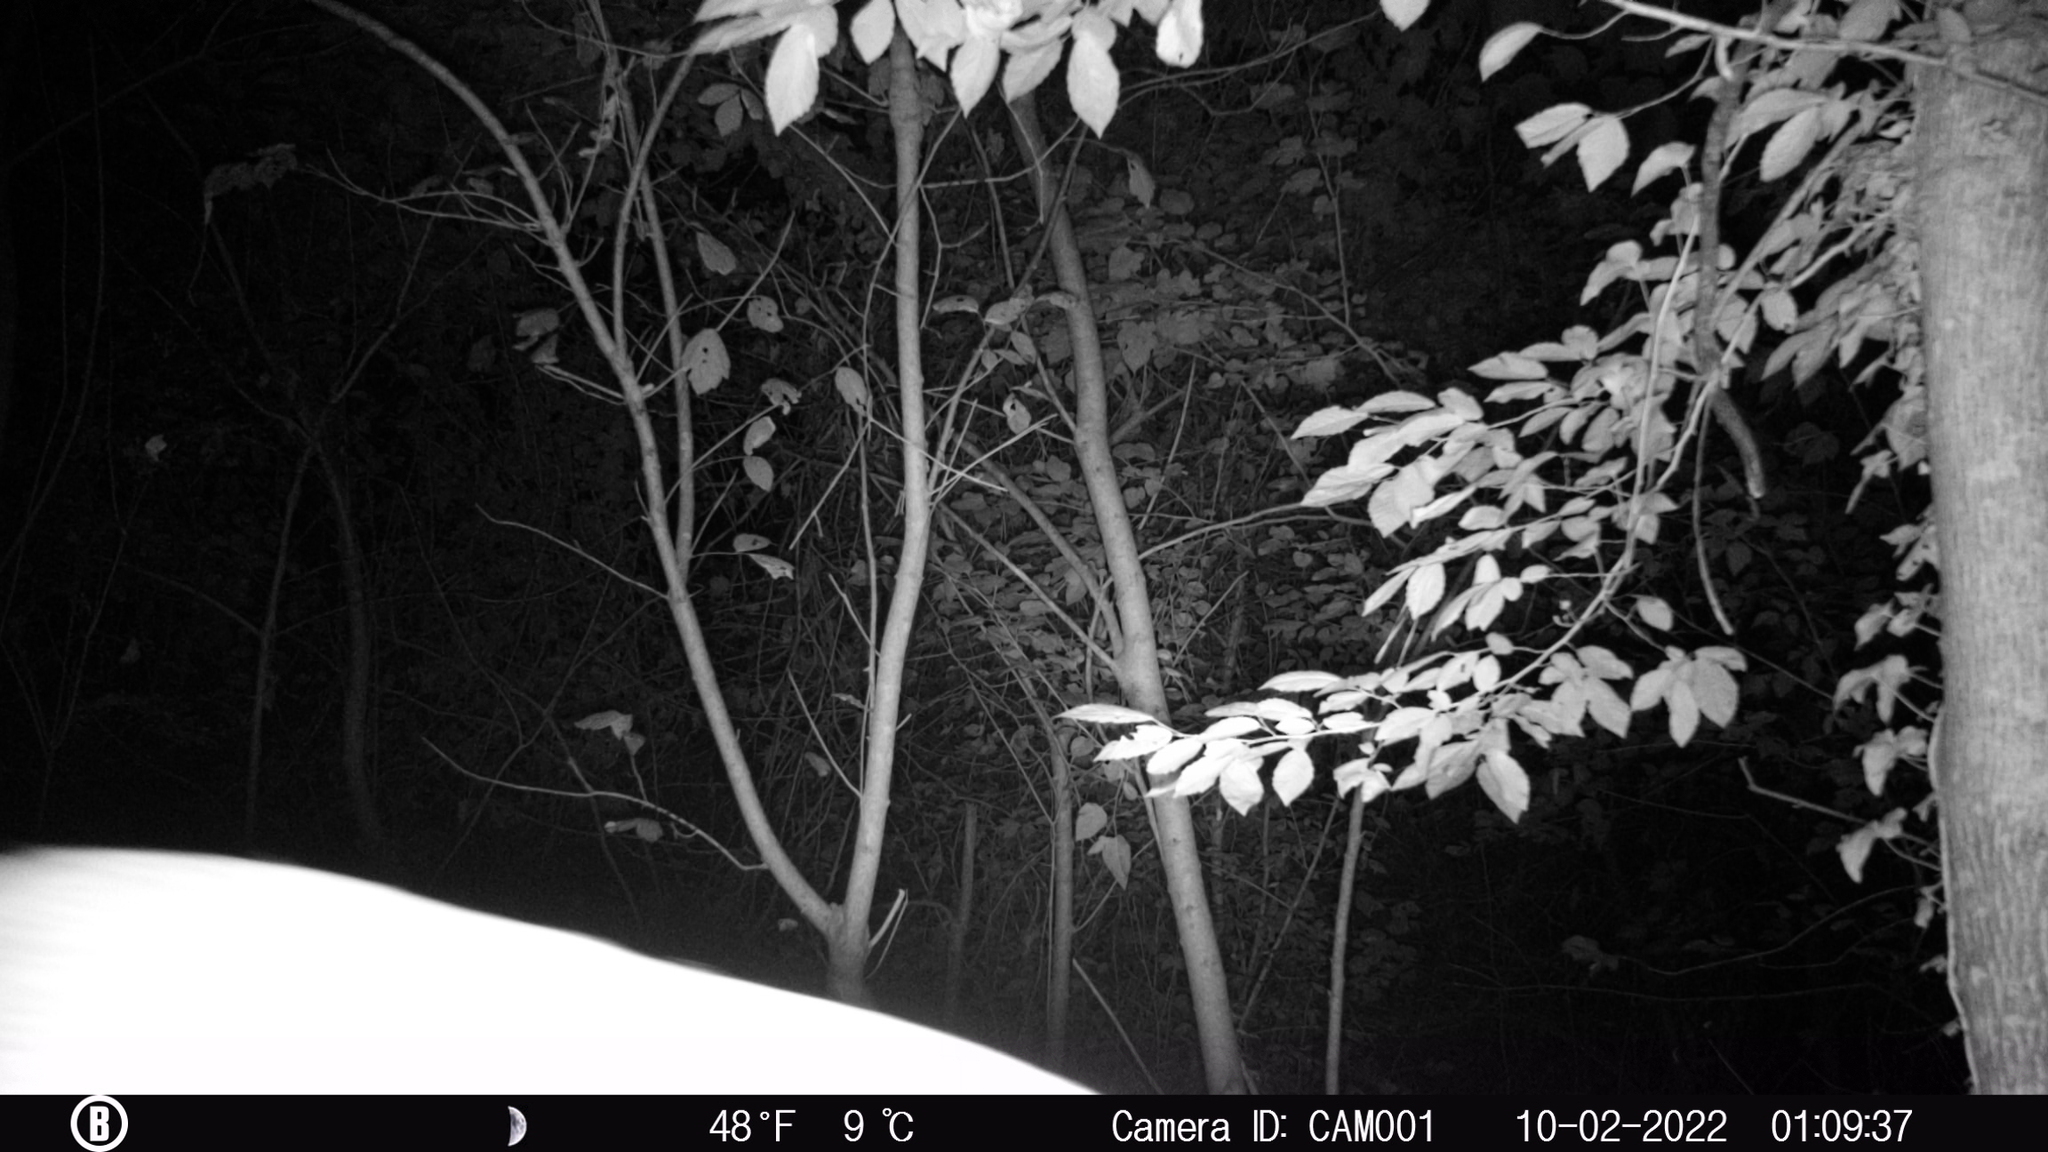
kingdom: Animalia
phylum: Chordata
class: Mammalia
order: Artiodactyla
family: Cervidae
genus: Odocoileus
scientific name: Odocoileus virginianus
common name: White-tailed deer
